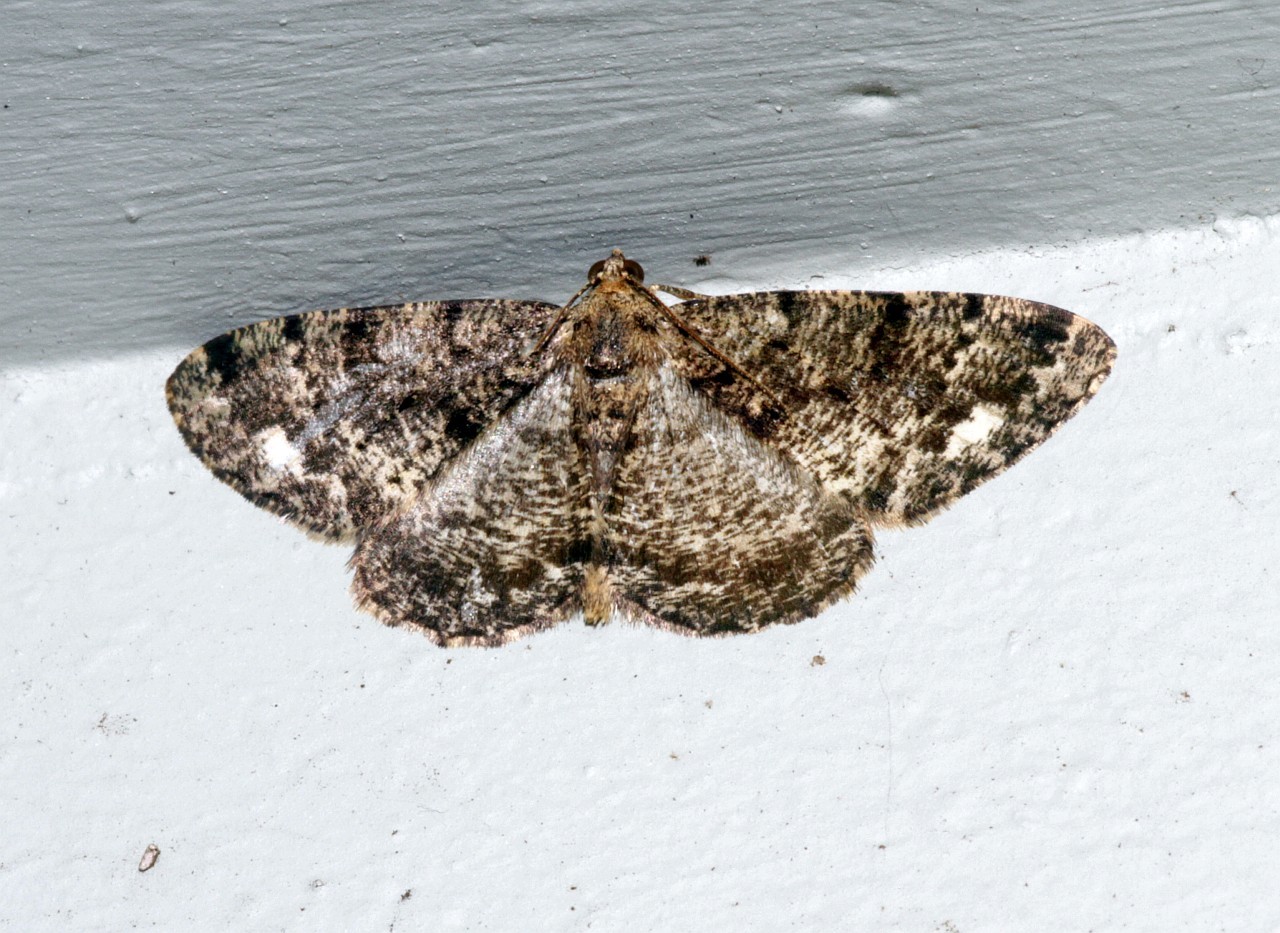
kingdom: Animalia
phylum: Arthropoda
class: Insecta
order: Lepidoptera
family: Geometridae
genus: Parectropis
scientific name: Parectropis similaria
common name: Brindled white-spot
